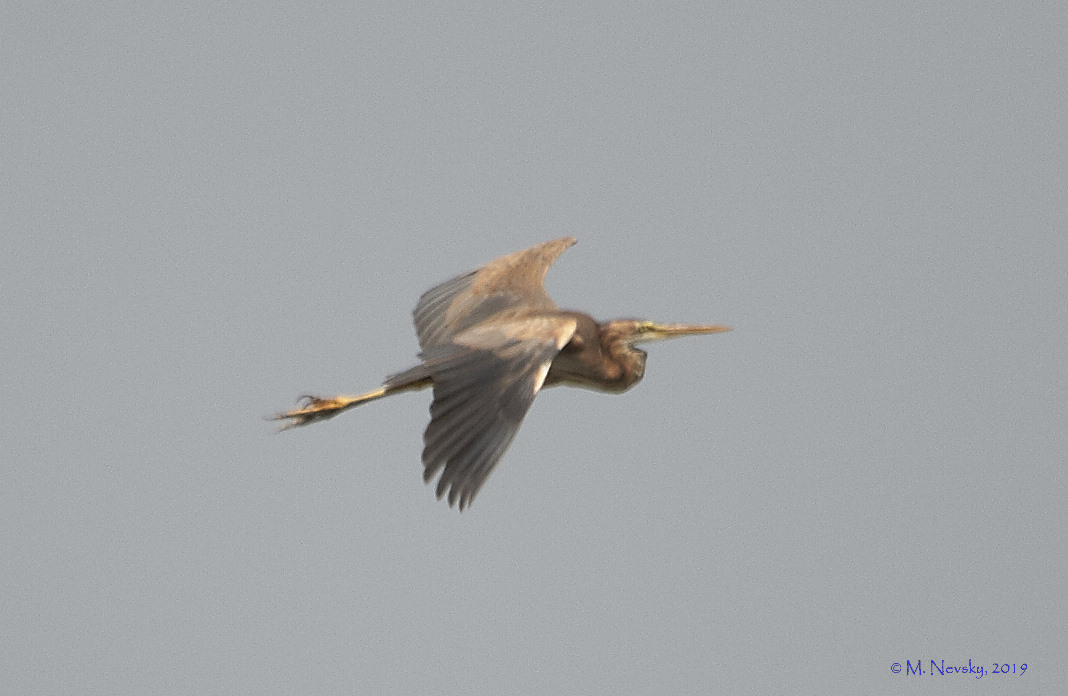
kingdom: Animalia
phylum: Chordata
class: Aves
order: Pelecaniformes
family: Ardeidae
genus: Ardea
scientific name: Ardea purpurea
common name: Purple heron
